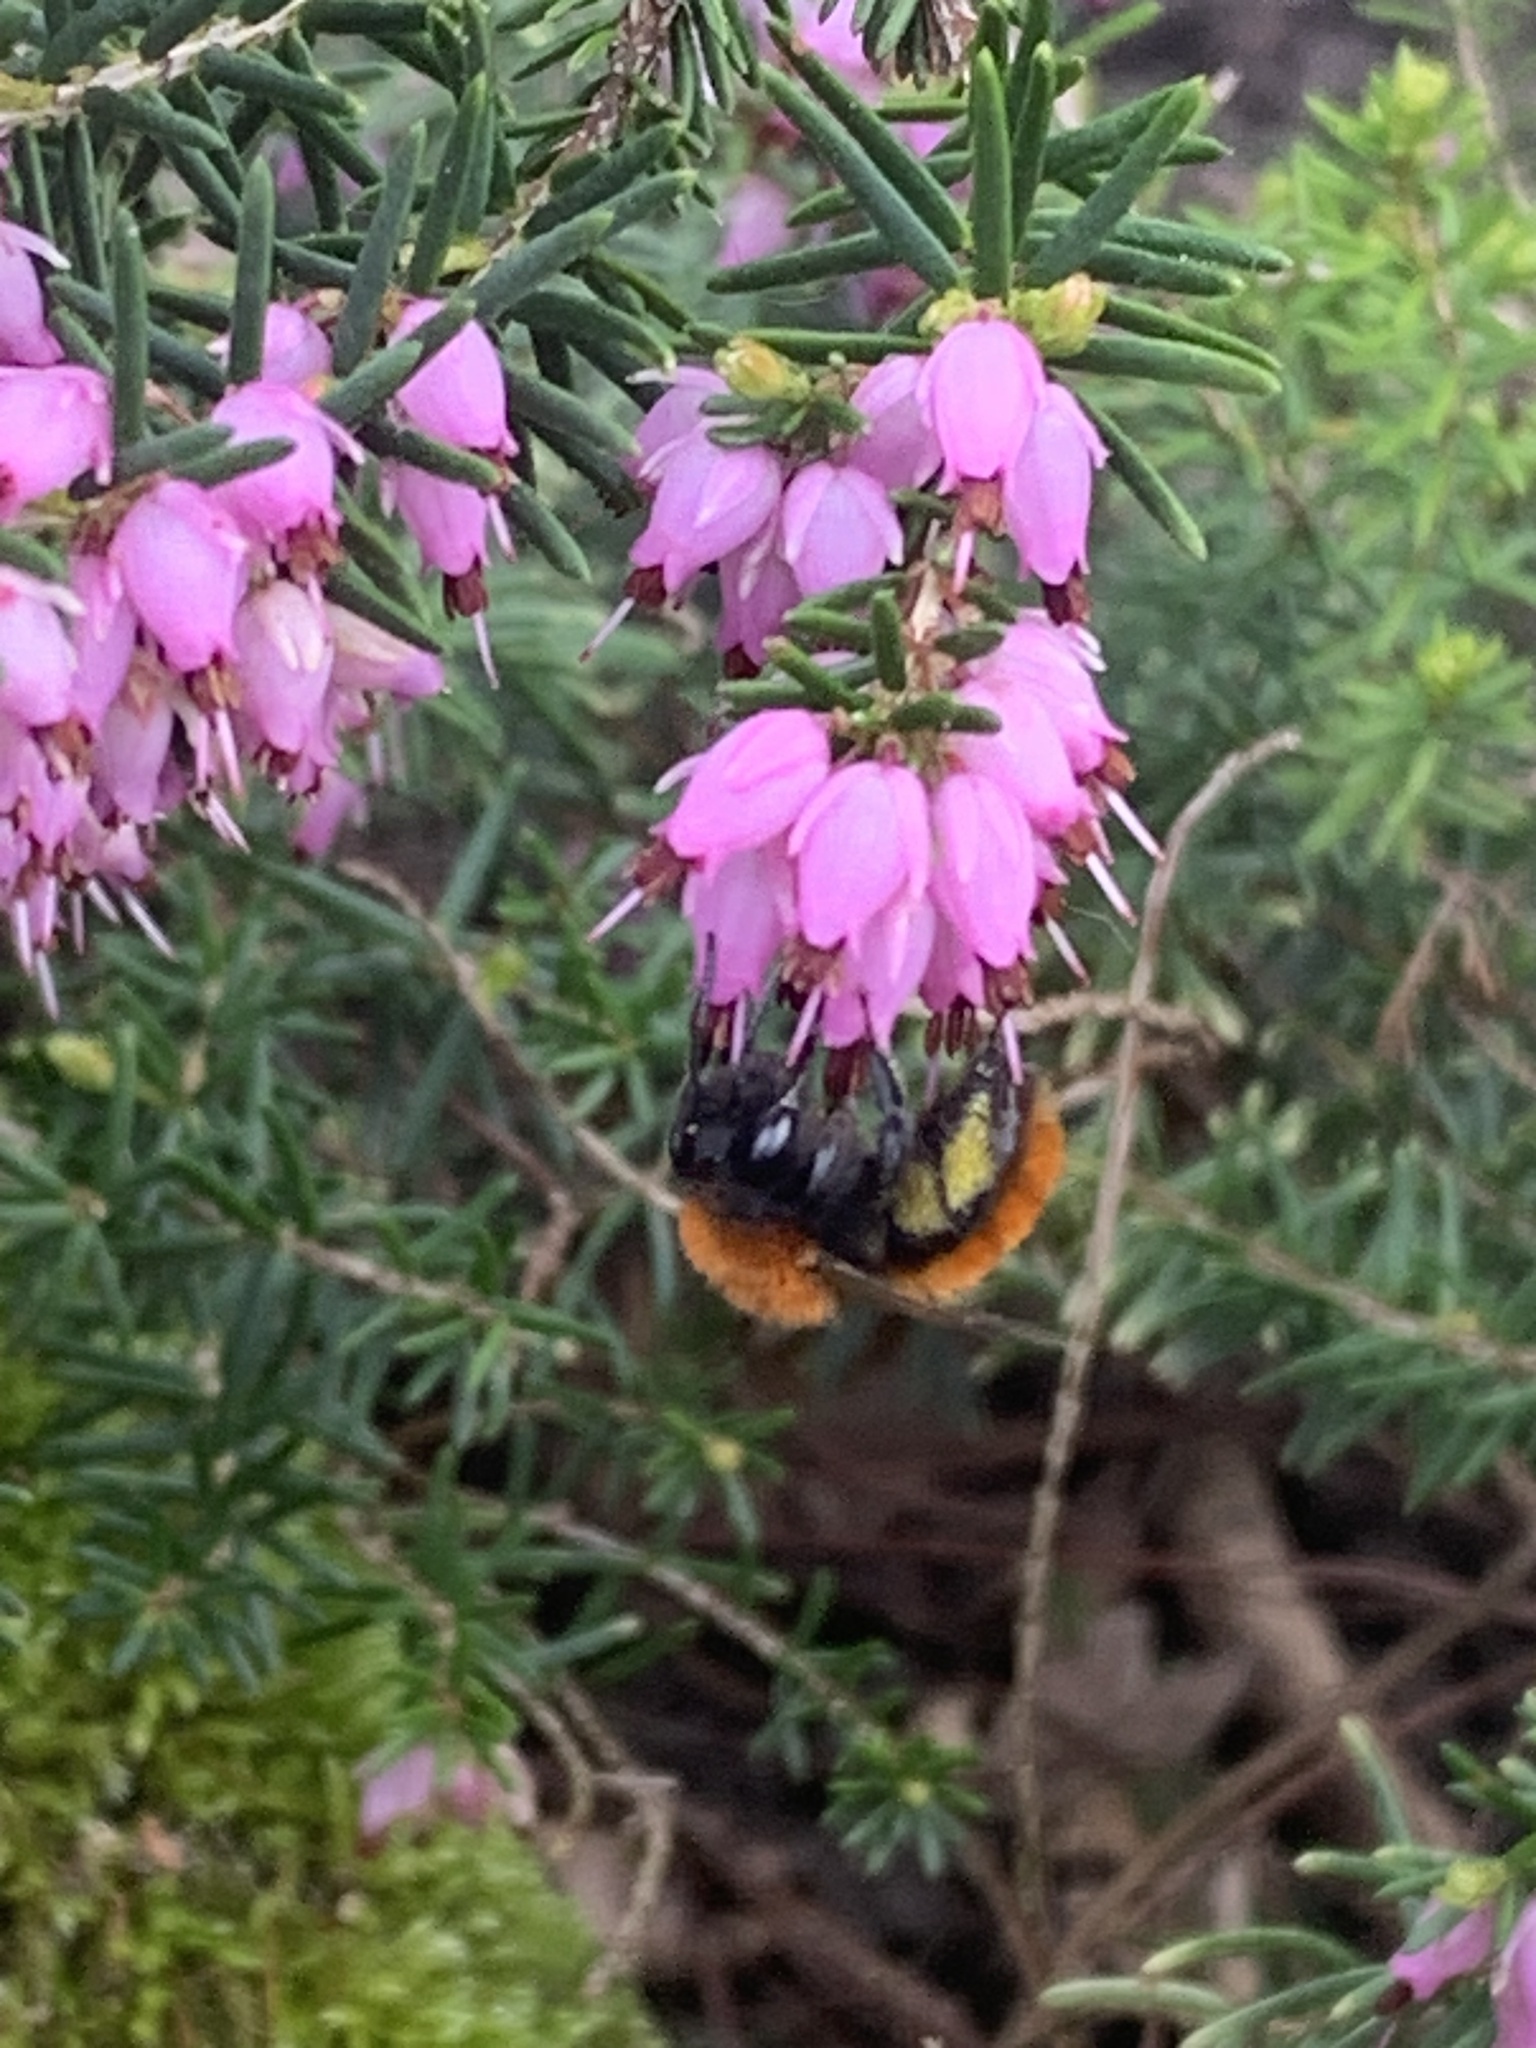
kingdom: Animalia
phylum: Arthropoda
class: Insecta
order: Hymenoptera
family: Andrenidae
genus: Andrena
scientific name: Andrena fulva
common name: Tawny mining bee
